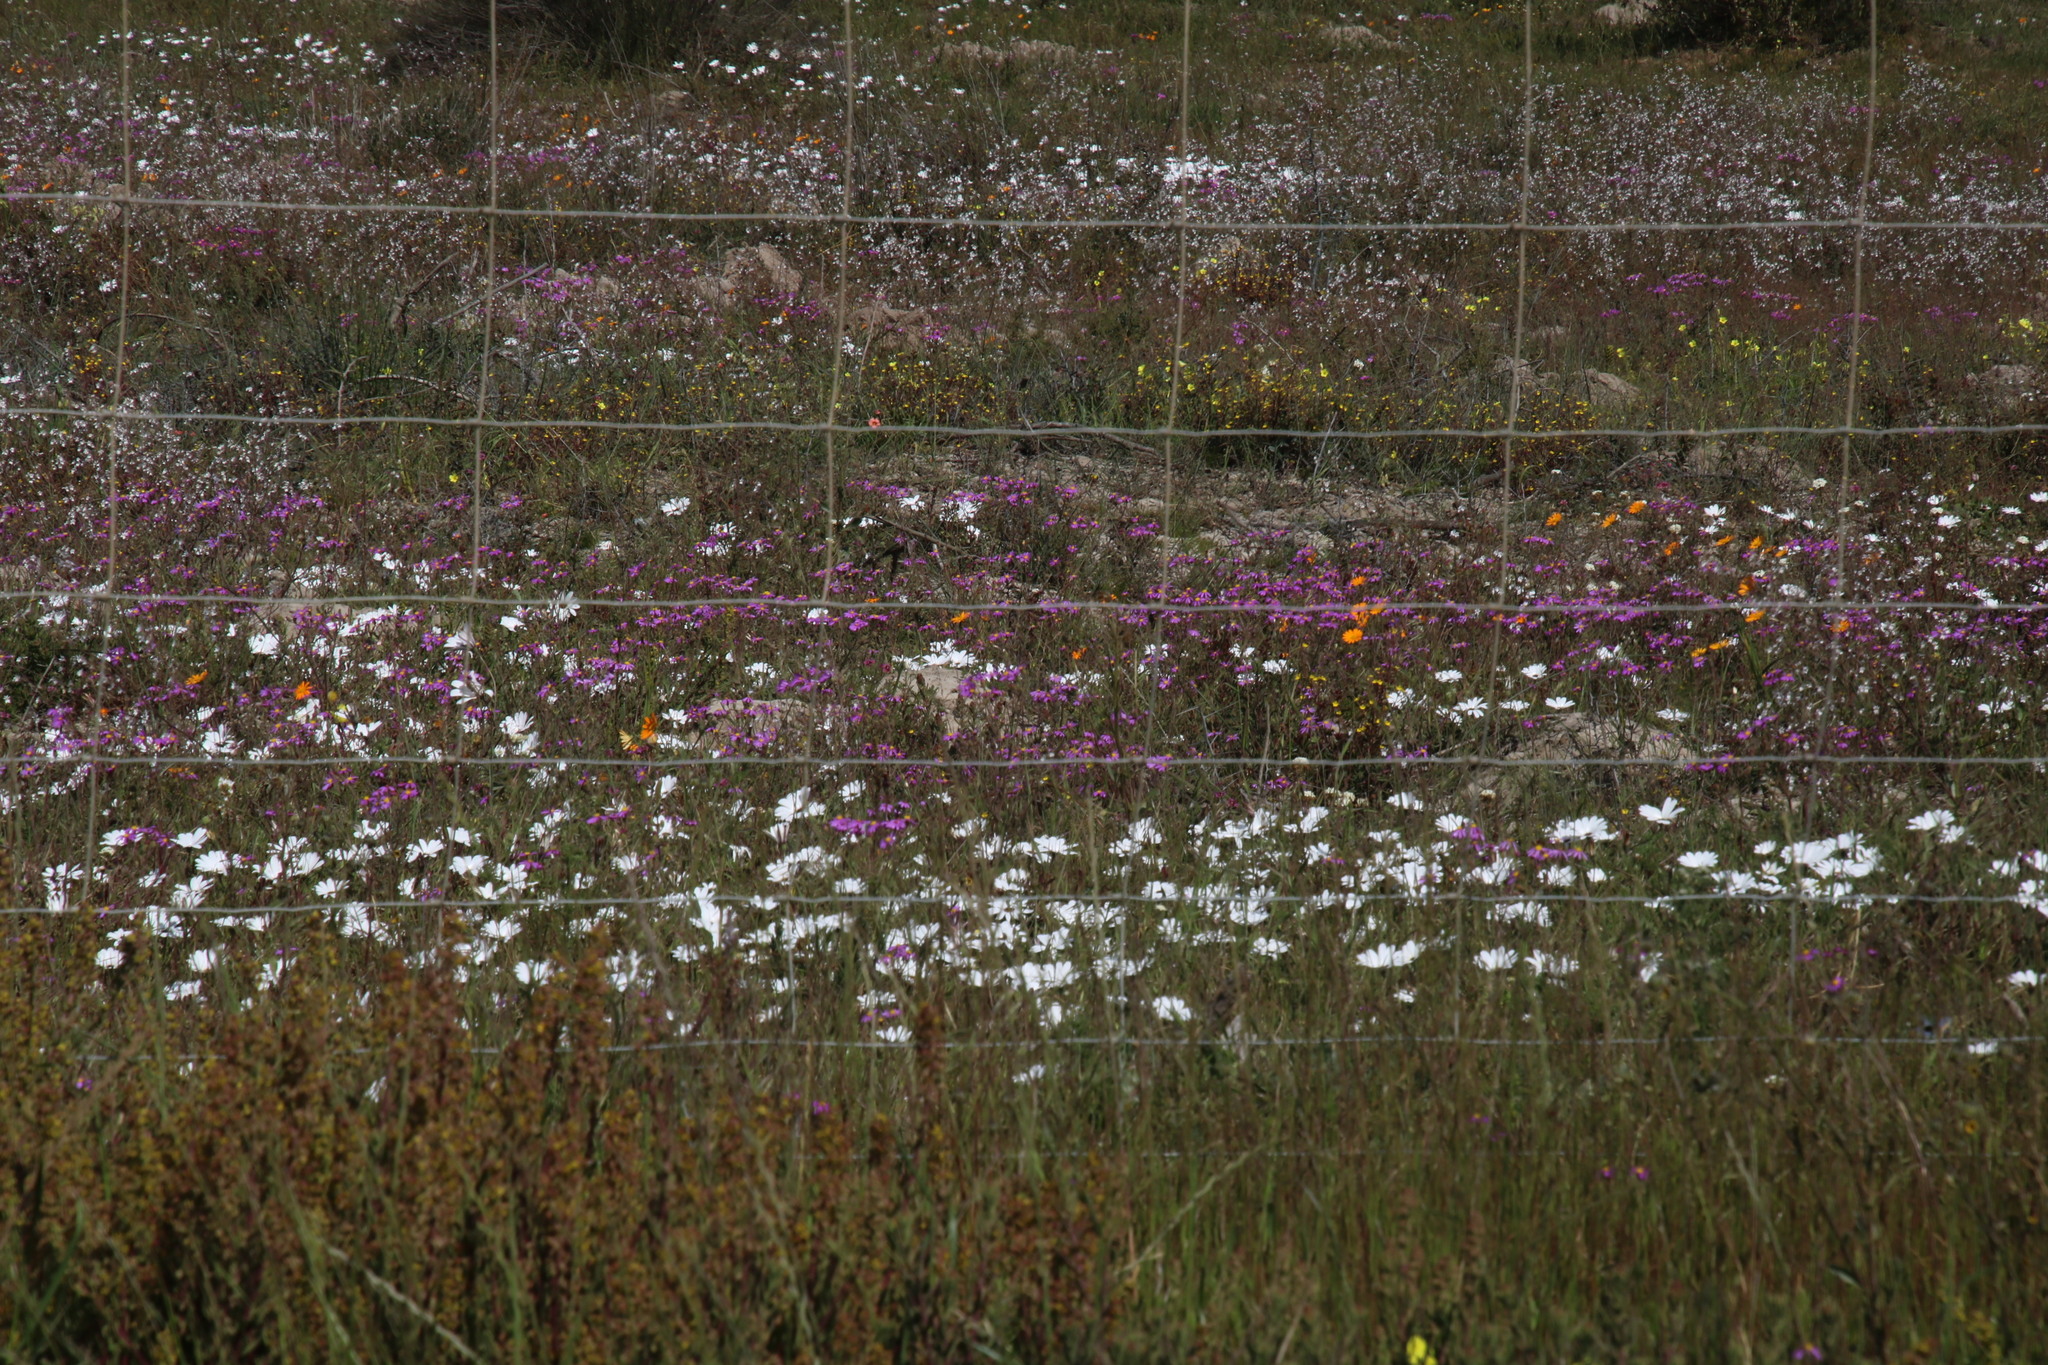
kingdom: Plantae
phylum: Tracheophyta
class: Magnoliopsida
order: Asterales
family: Asteraceae
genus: Dimorphotheca
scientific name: Dimorphotheca pluvialis
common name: Weather prophet
